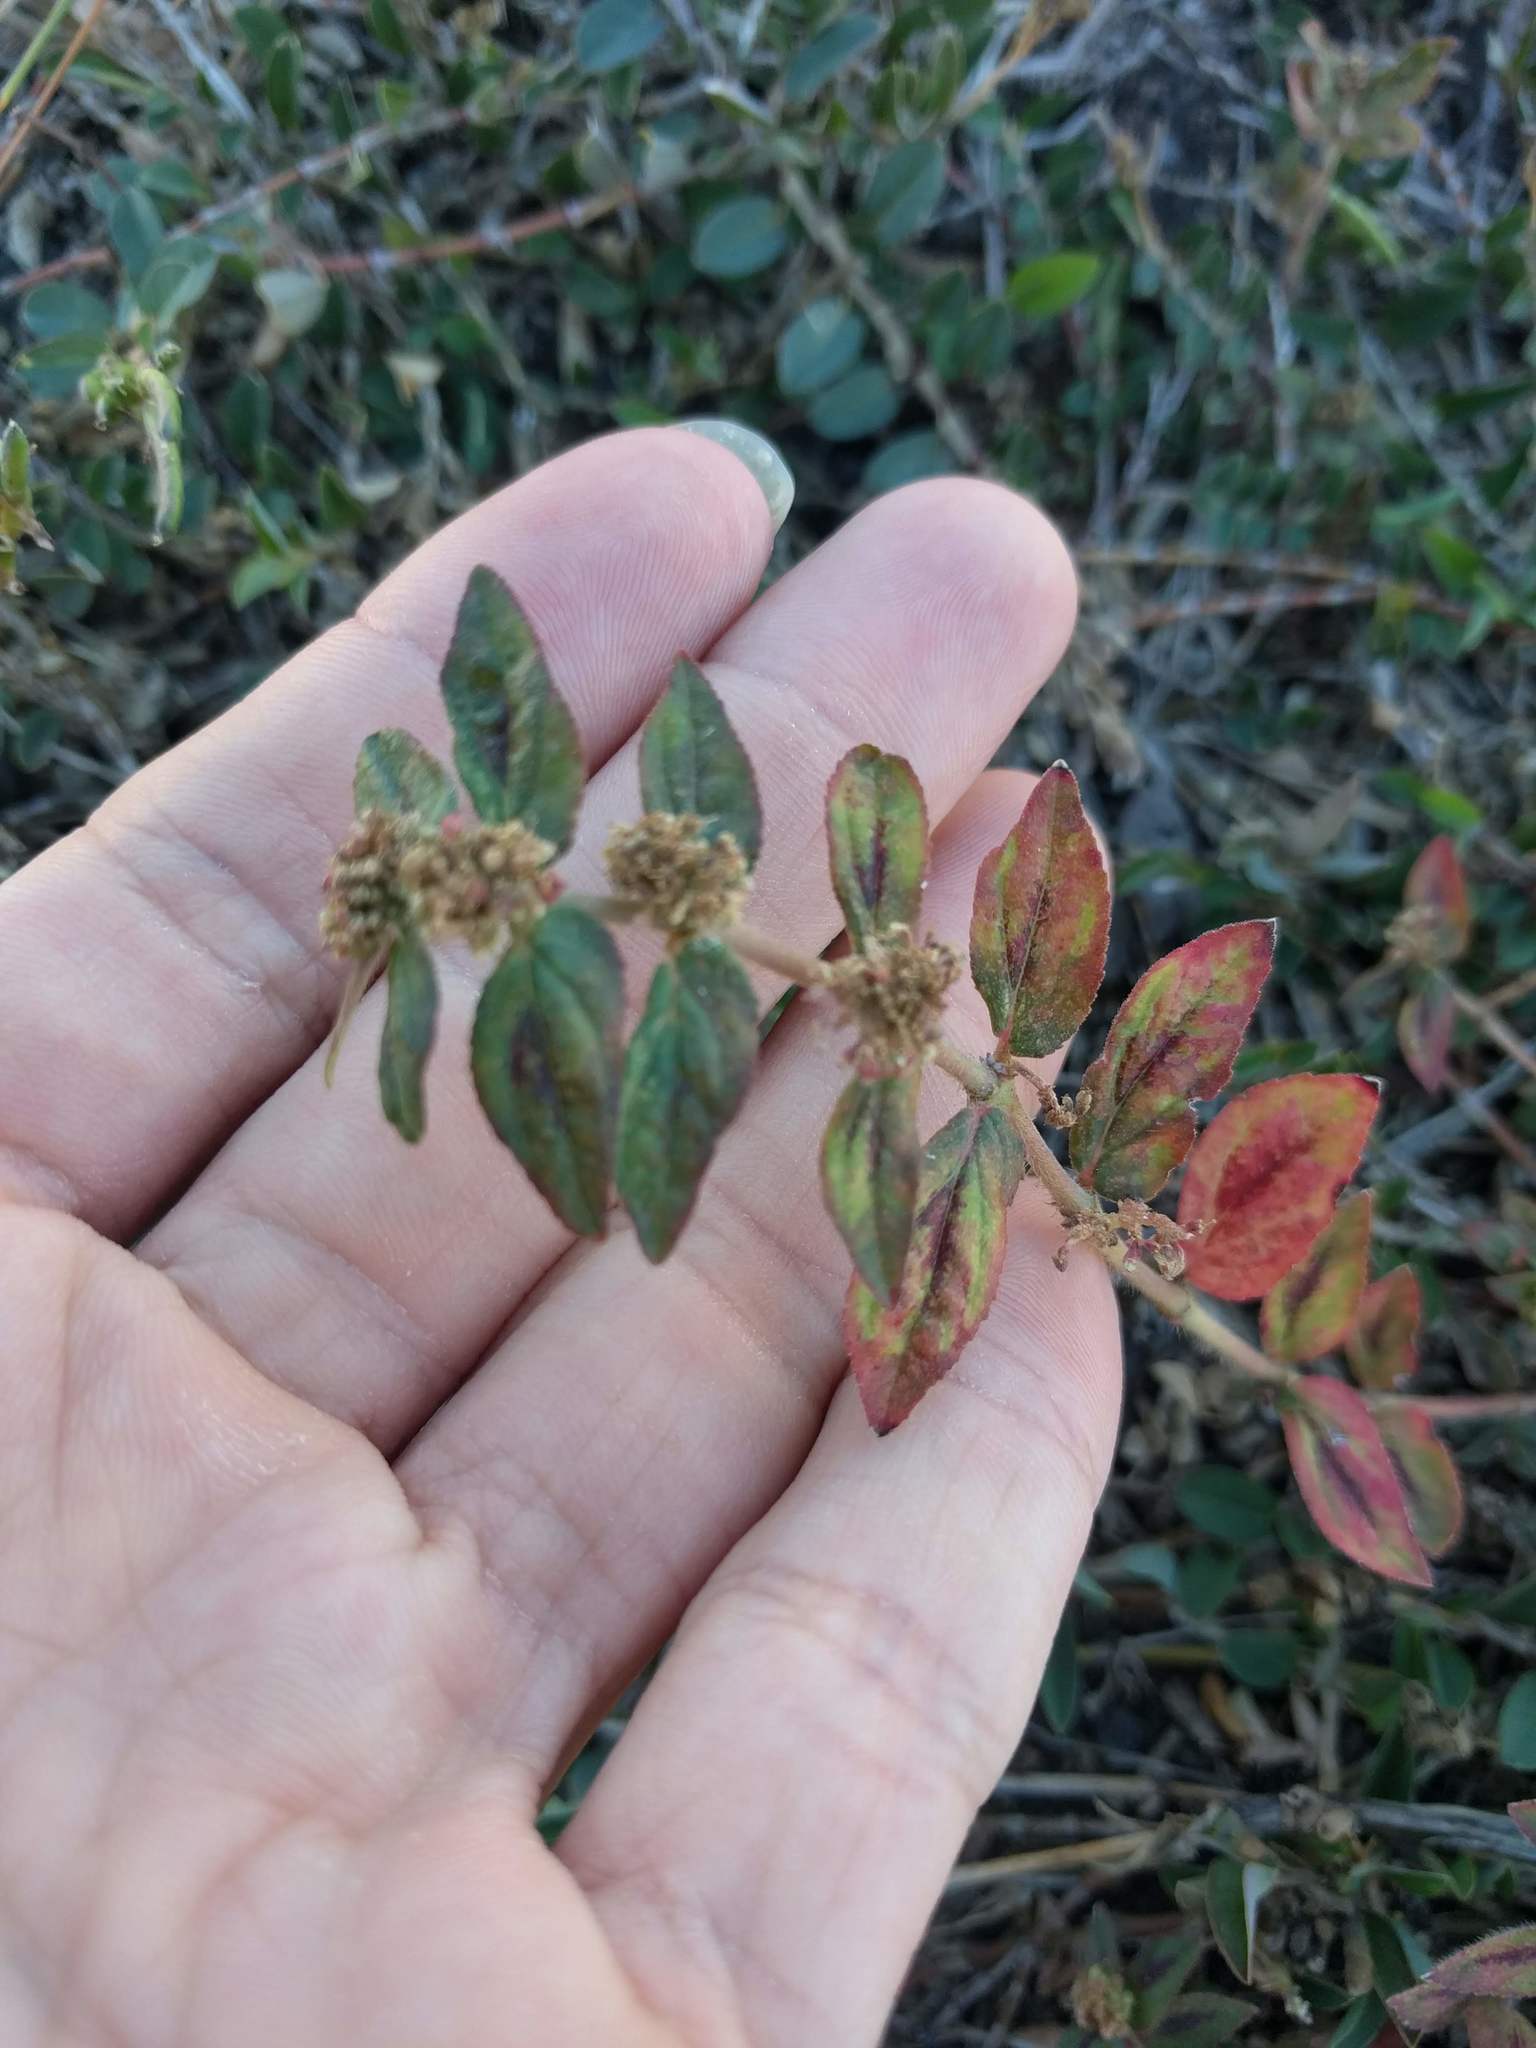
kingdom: Plantae
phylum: Tracheophyta
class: Magnoliopsida
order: Malpighiales
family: Euphorbiaceae
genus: Euphorbia
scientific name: Euphorbia hirta
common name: Pillpod sandmat
